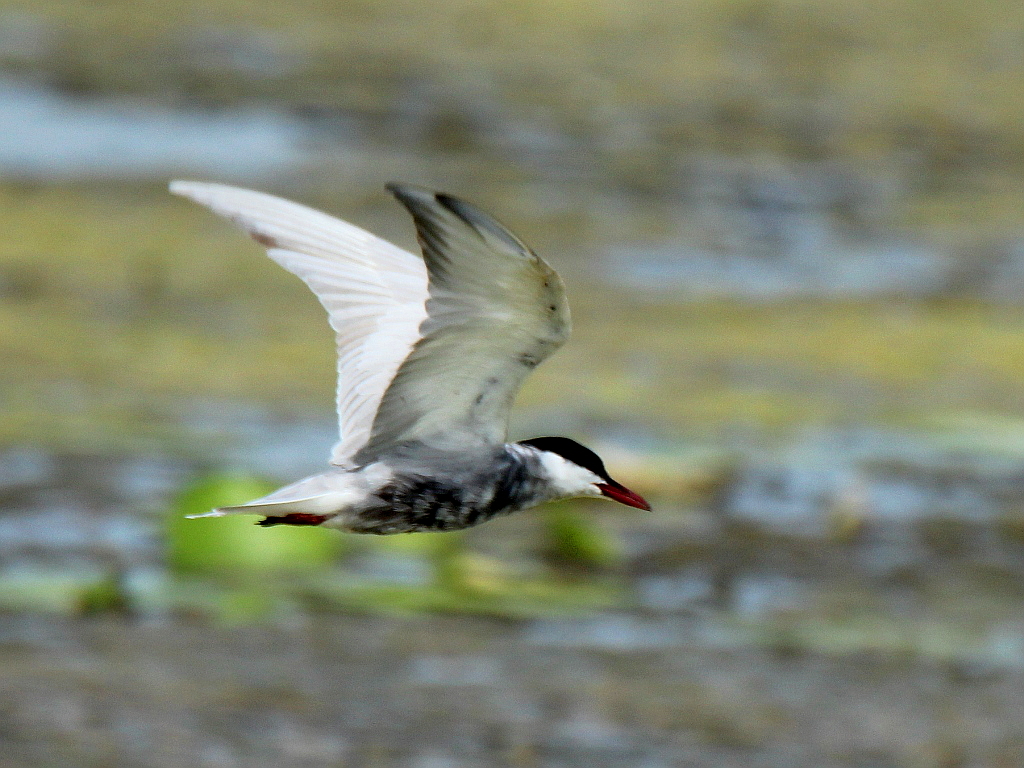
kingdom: Animalia
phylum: Chordata
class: Aves
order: Charadriiformes
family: Laridae
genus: Chlidonias
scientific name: Chlidonias hybrida
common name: Whiskered tern
